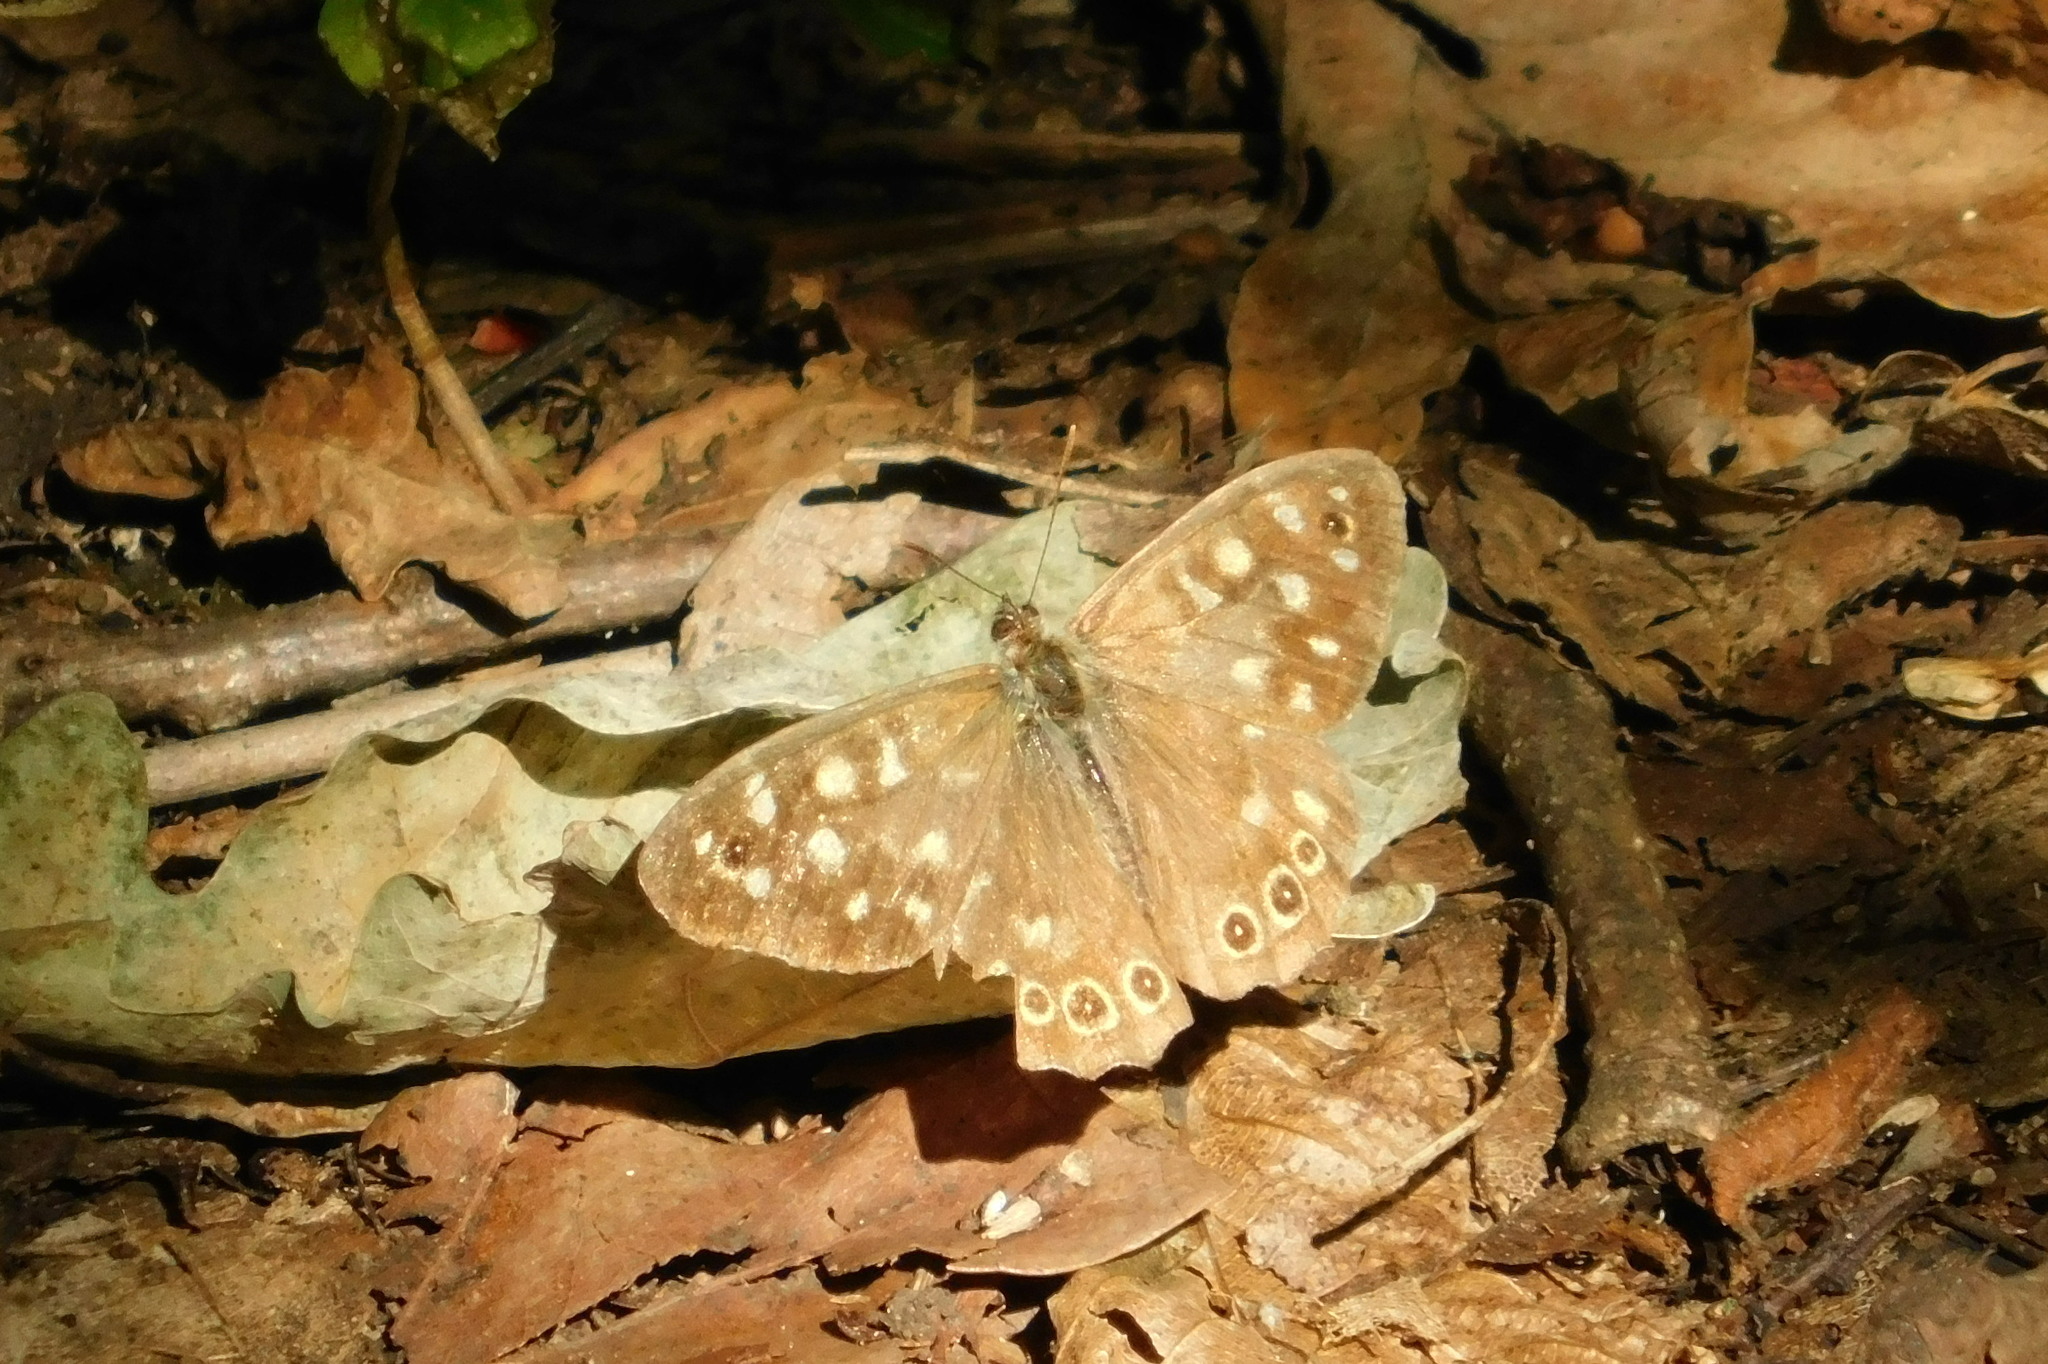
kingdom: Animalia
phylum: Arthropoda
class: Insecta
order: Lepidoptera
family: Nymphalidae
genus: Pararge
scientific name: Pararge aegeria
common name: Speckled wood
